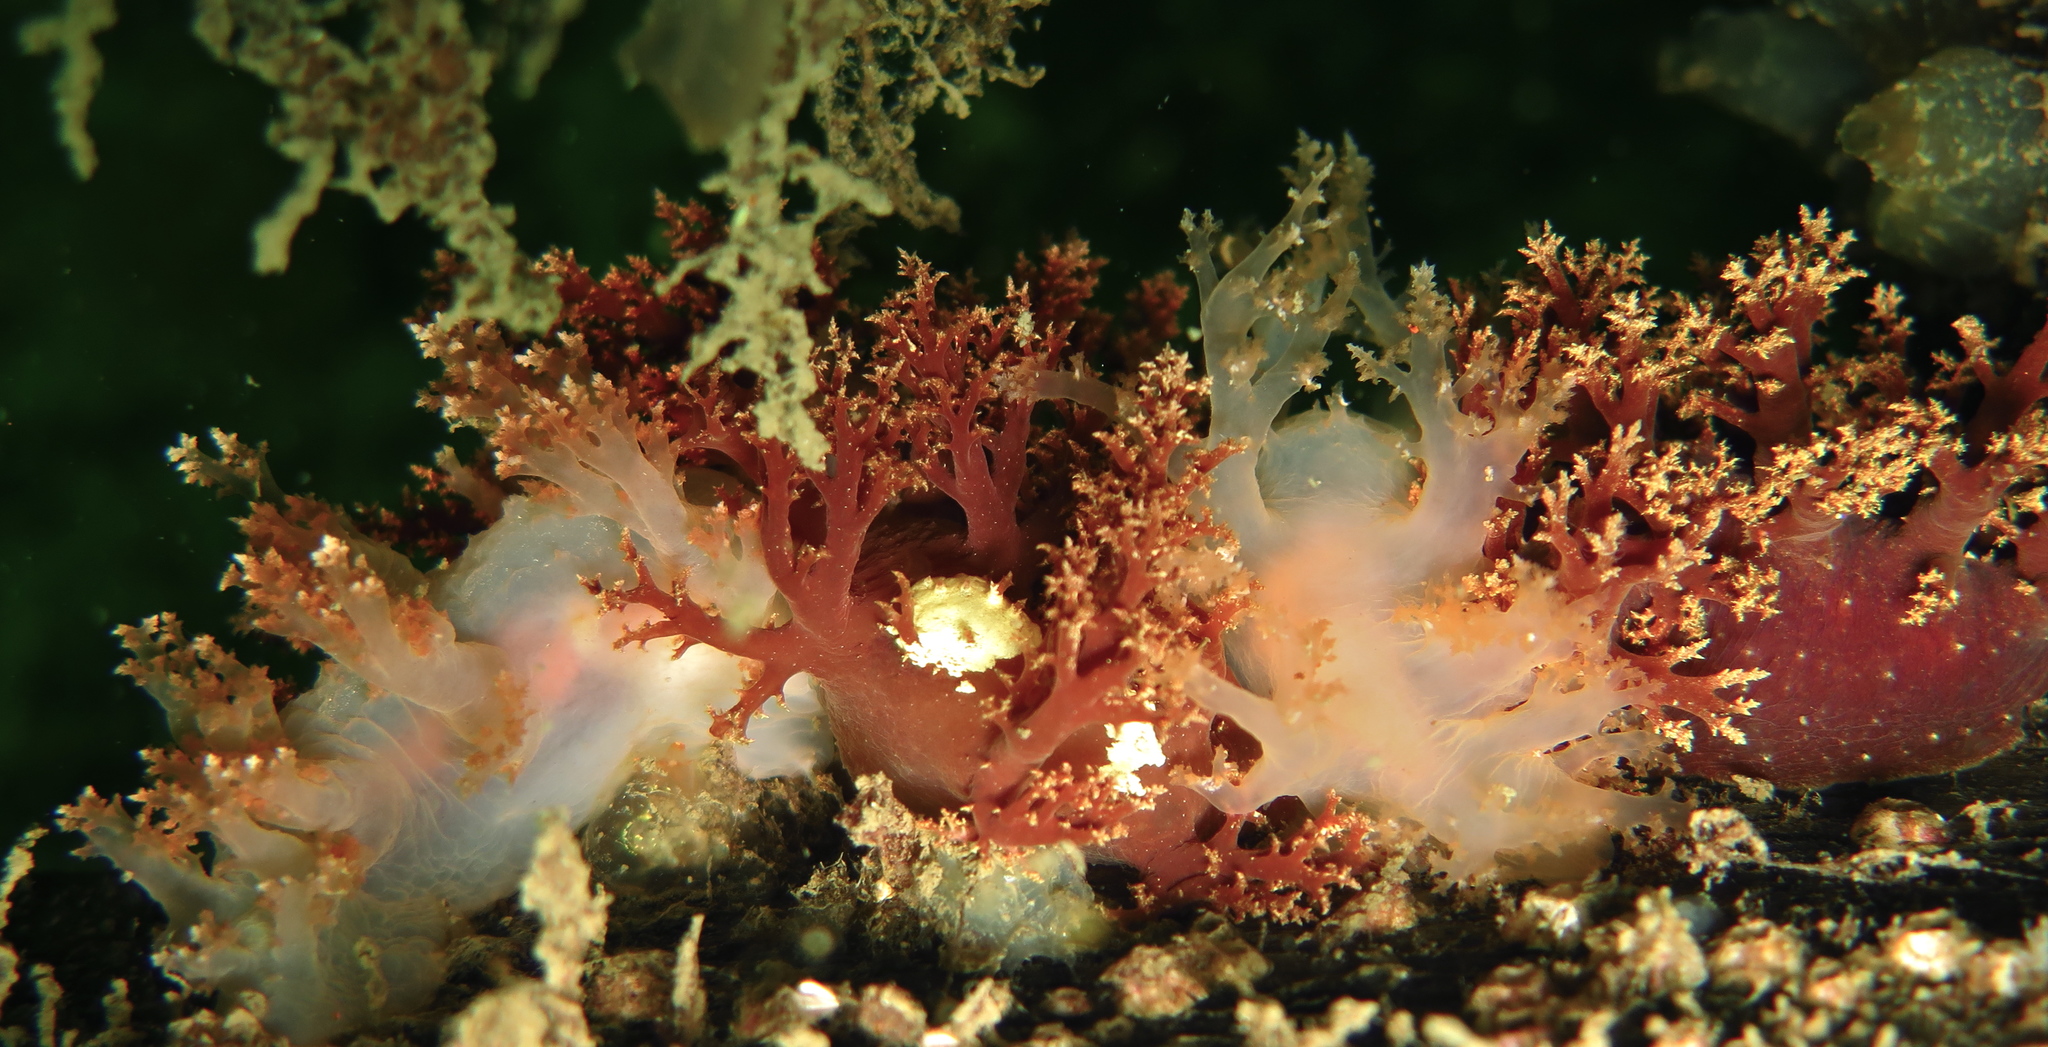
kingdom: Animalia
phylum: Mollusca
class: Gastropoda
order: Nudibranchia
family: Dendronotidae
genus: Dendronotus
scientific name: Dendronotus frondosus
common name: Bushy-backed nudibranch
